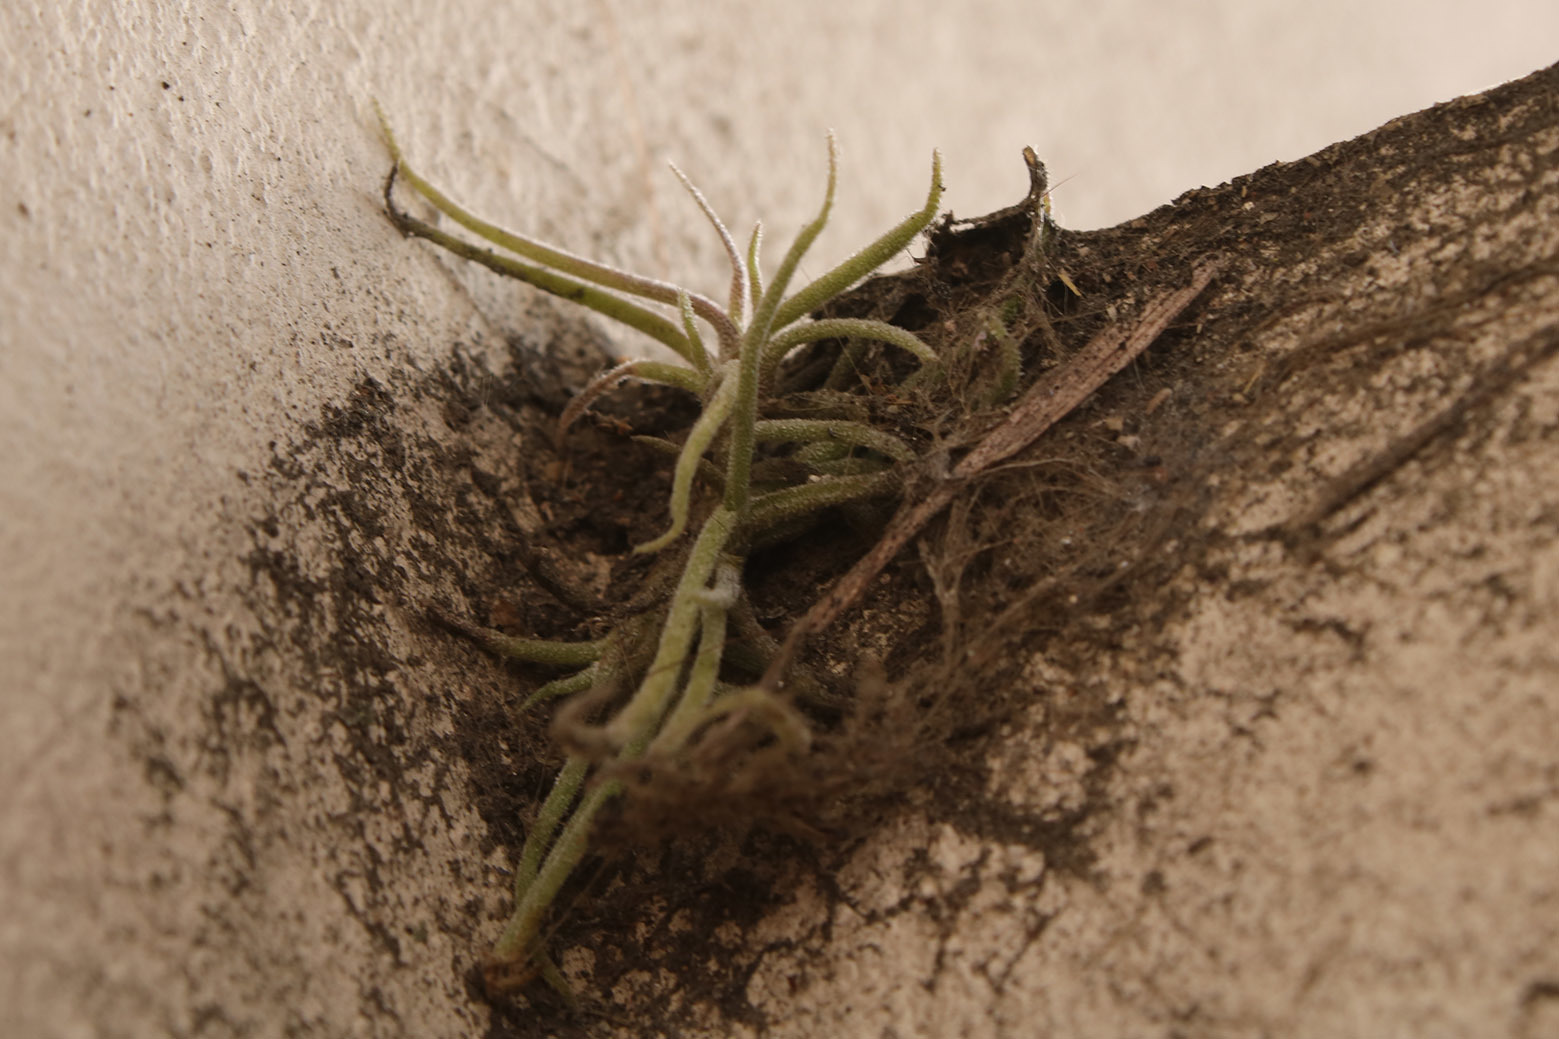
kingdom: Plantae
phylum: Tracheophyta
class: Liliopsida
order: Poales
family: Bromeliaceae
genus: Tillandsia
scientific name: Tillandsia recurvata
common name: Small ballmoss
